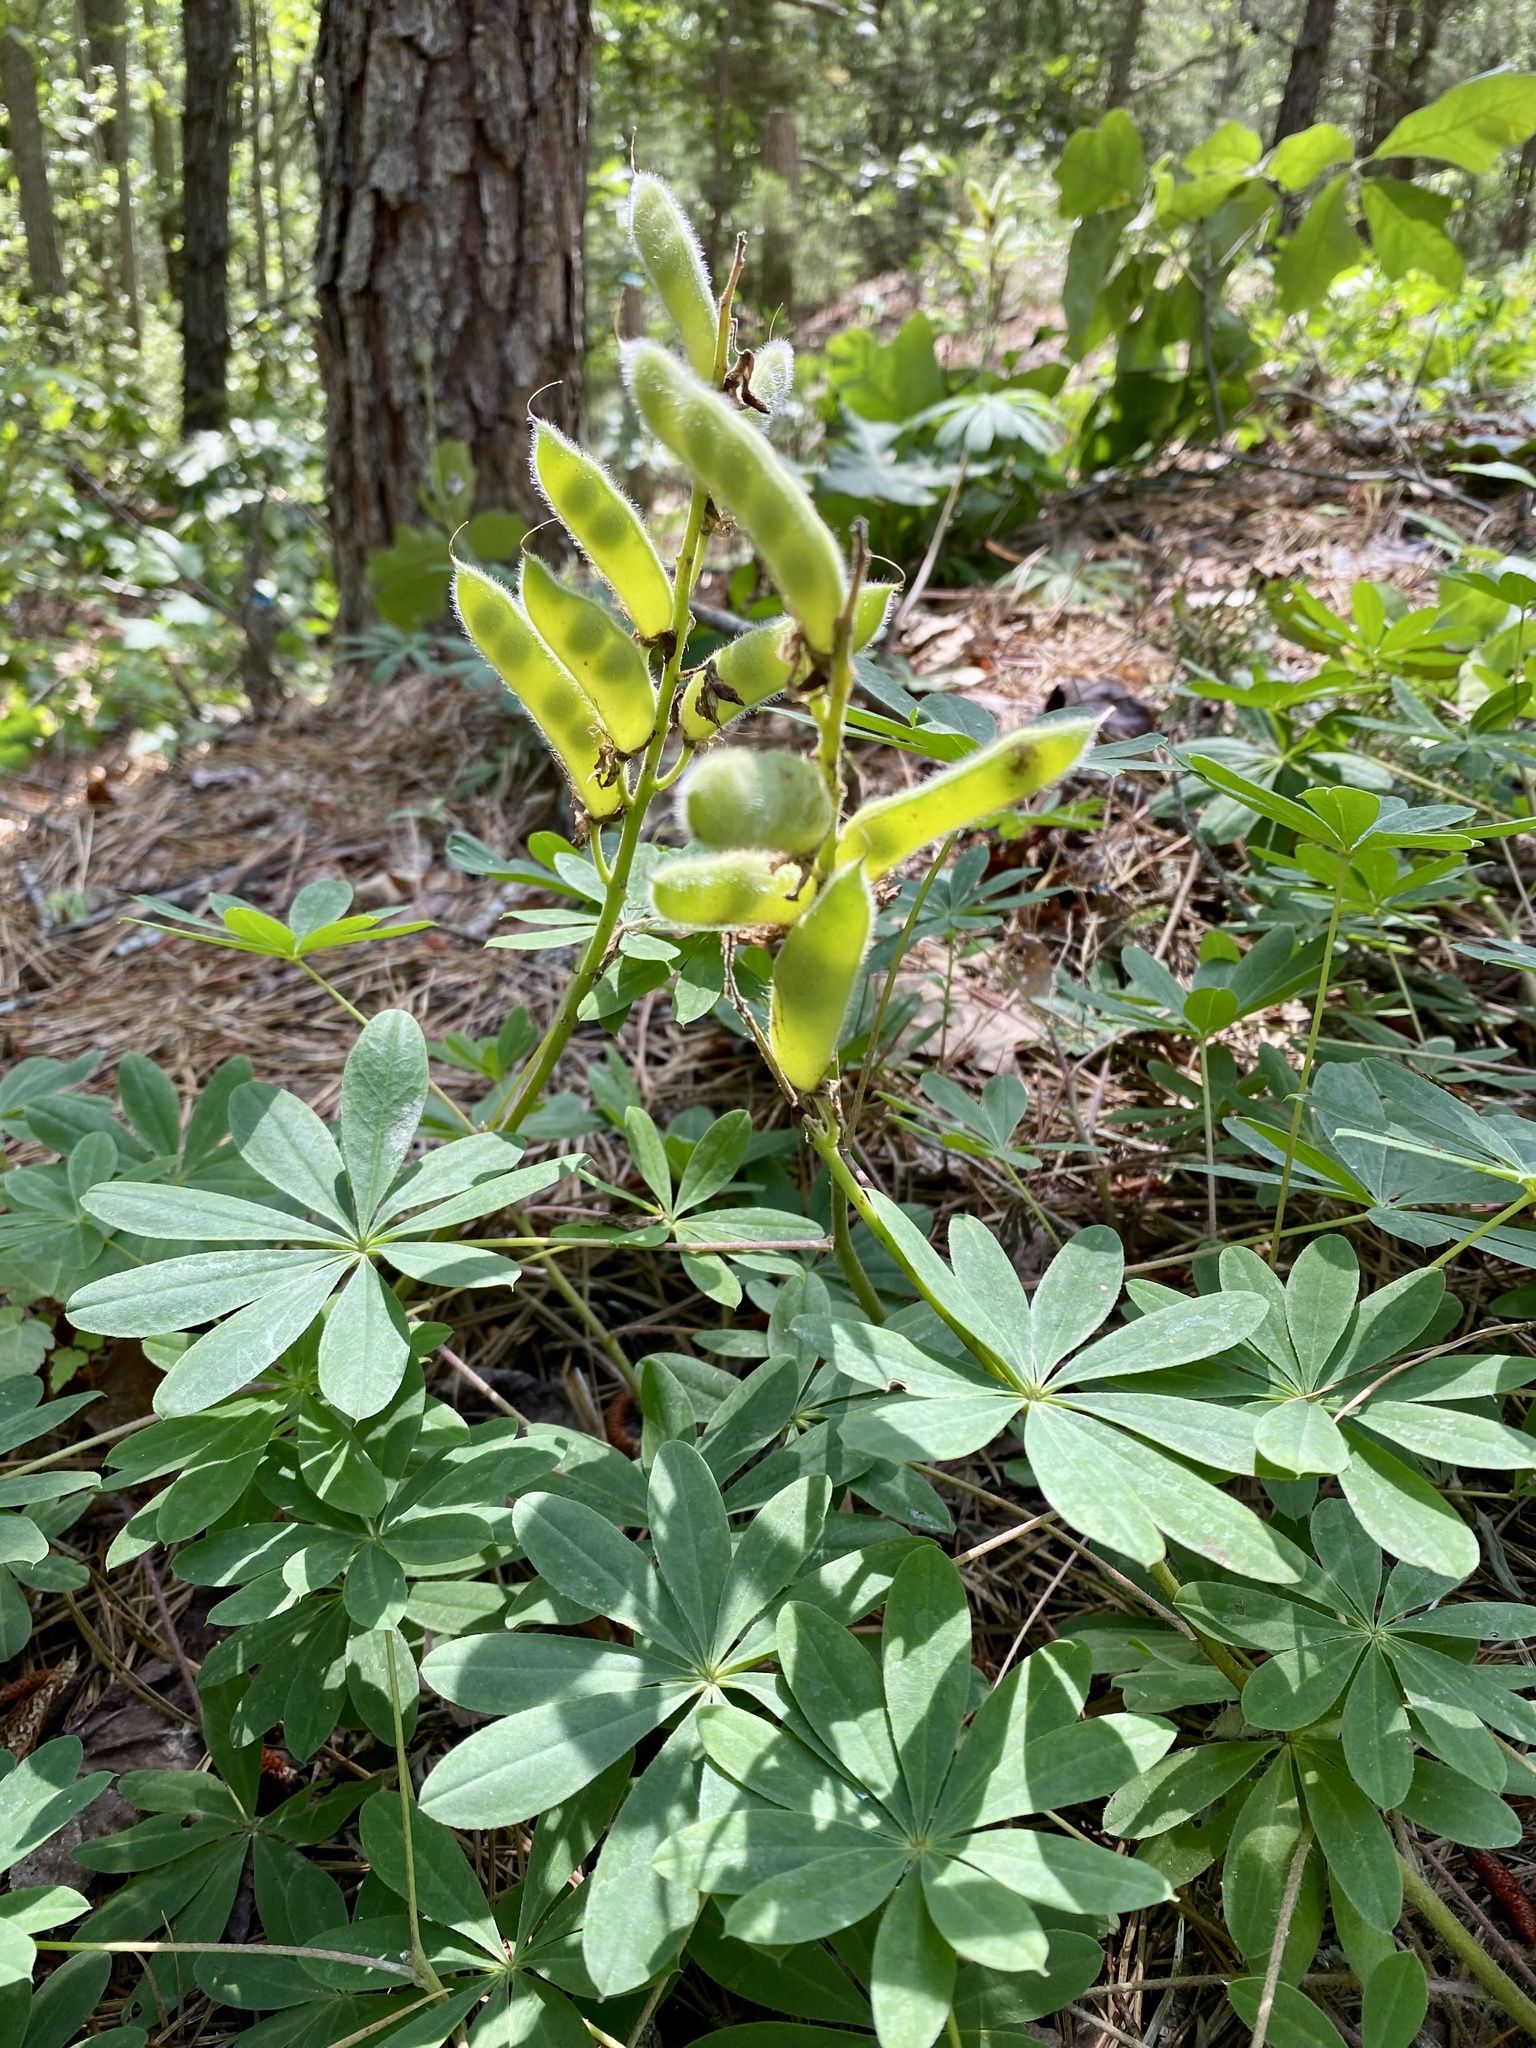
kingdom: Plantae
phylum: Tracheophyta
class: Magnoliopsida
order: Fabales
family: Fabaceae
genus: Lupinus
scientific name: Lupinus perennis
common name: Sundial lupine
